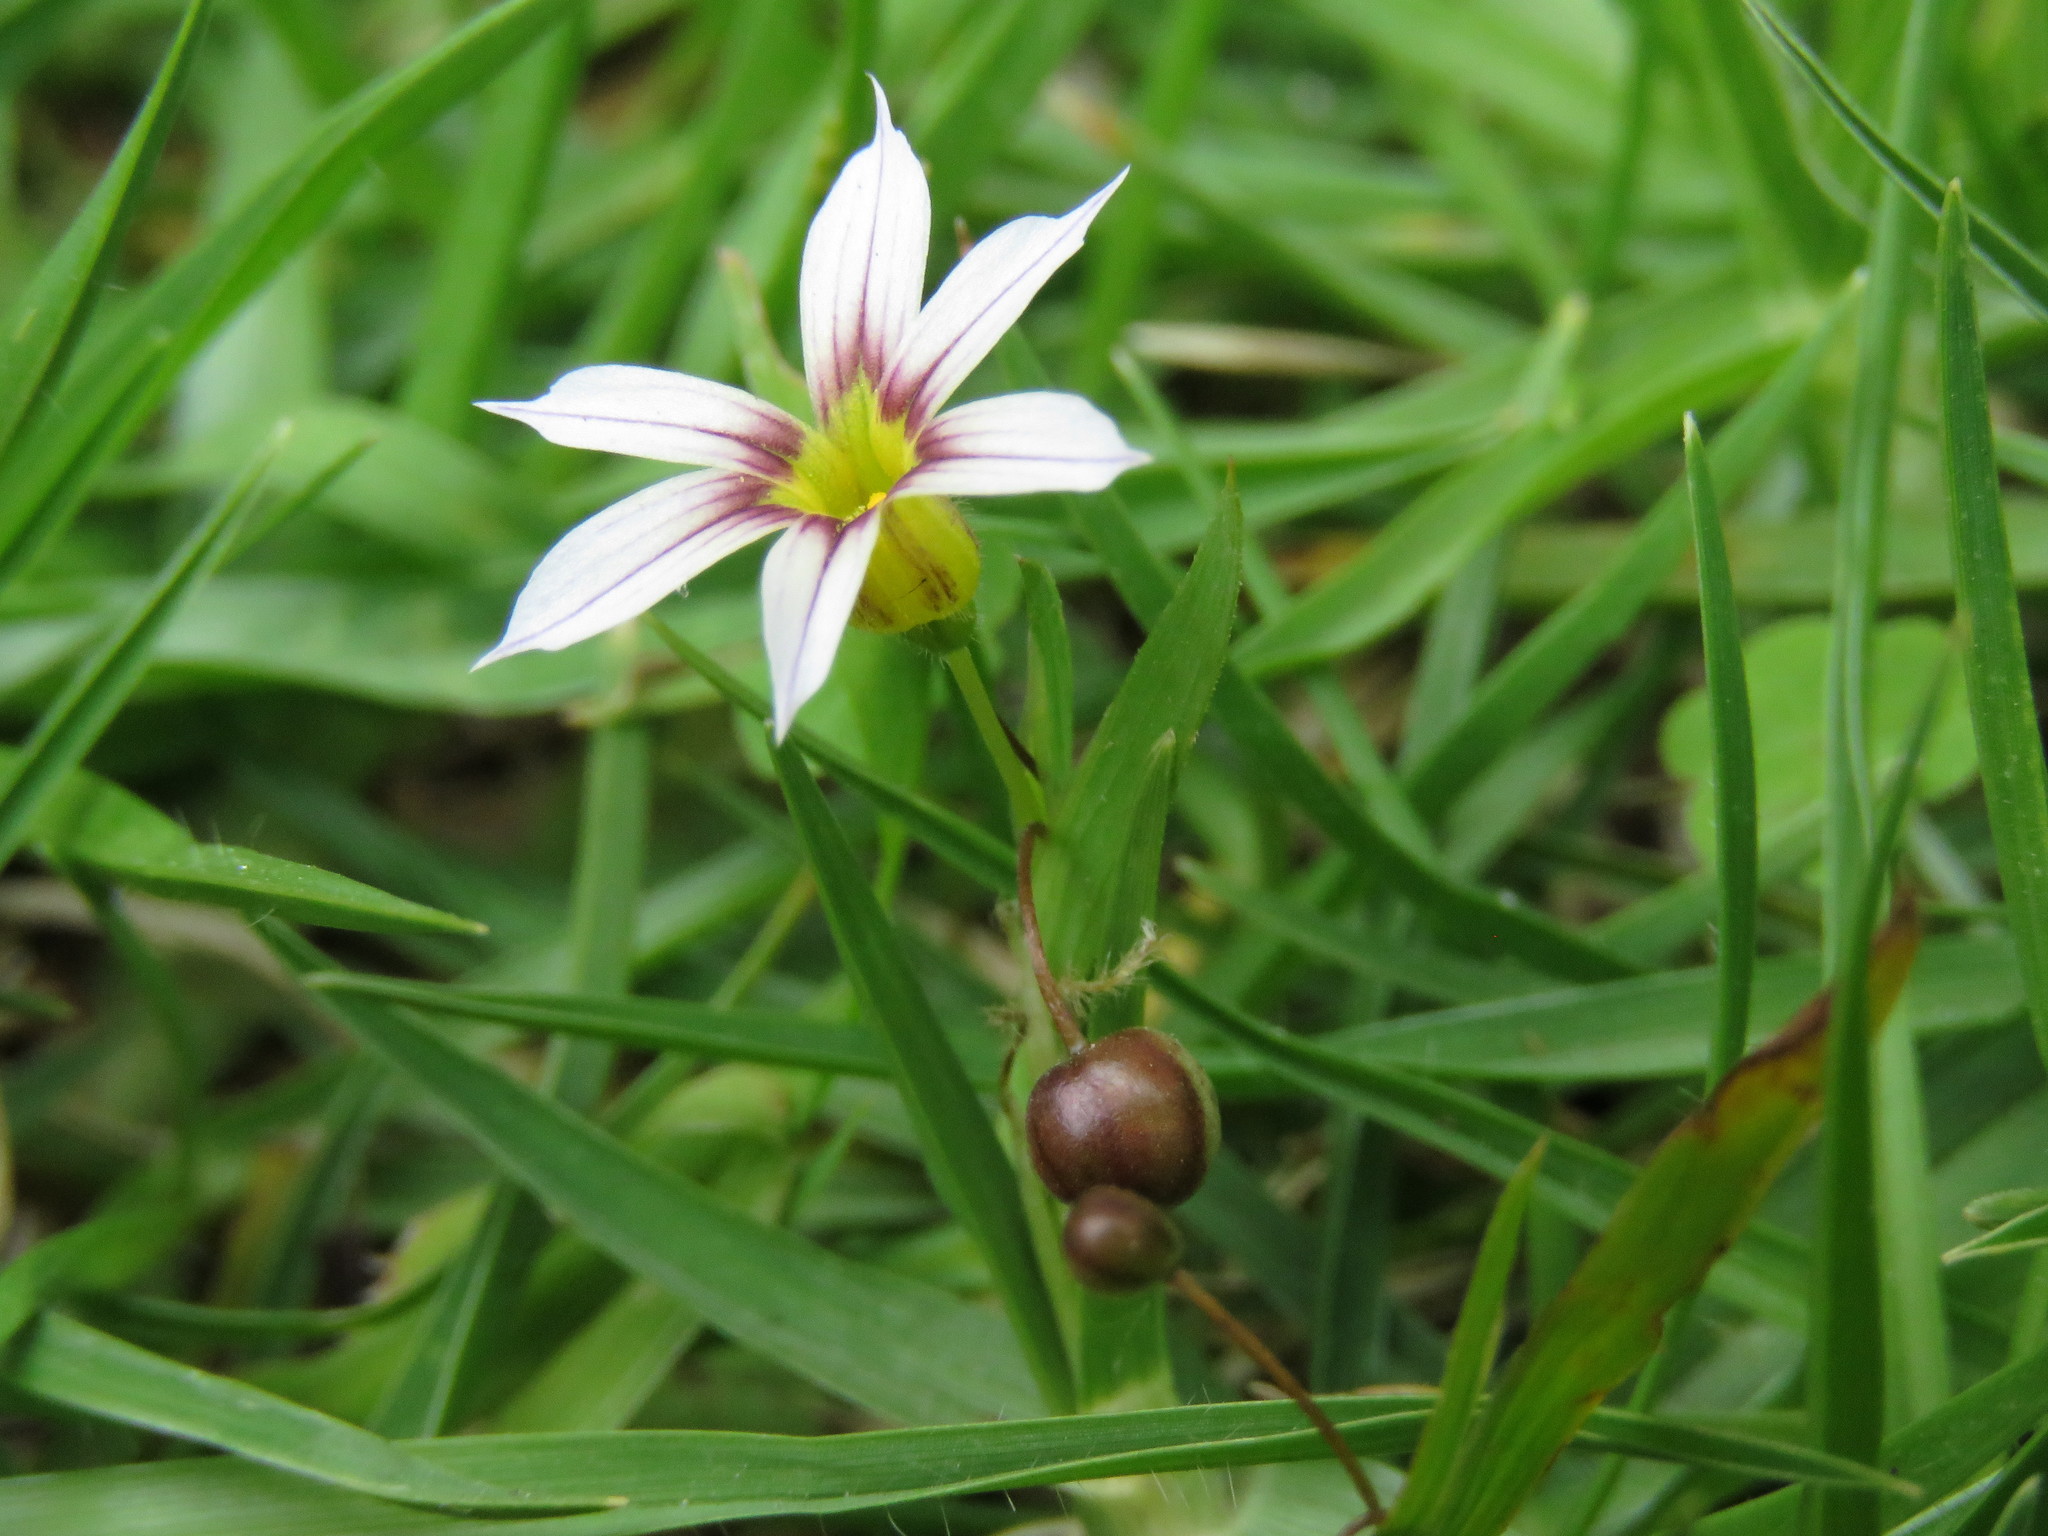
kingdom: Plantae
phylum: Tracheophyta
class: Liliopsida
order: Asparagales
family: Iridaceae
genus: Sisyrinchium
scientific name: Sisyrinchium micranthum
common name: Bermuda pigroot
